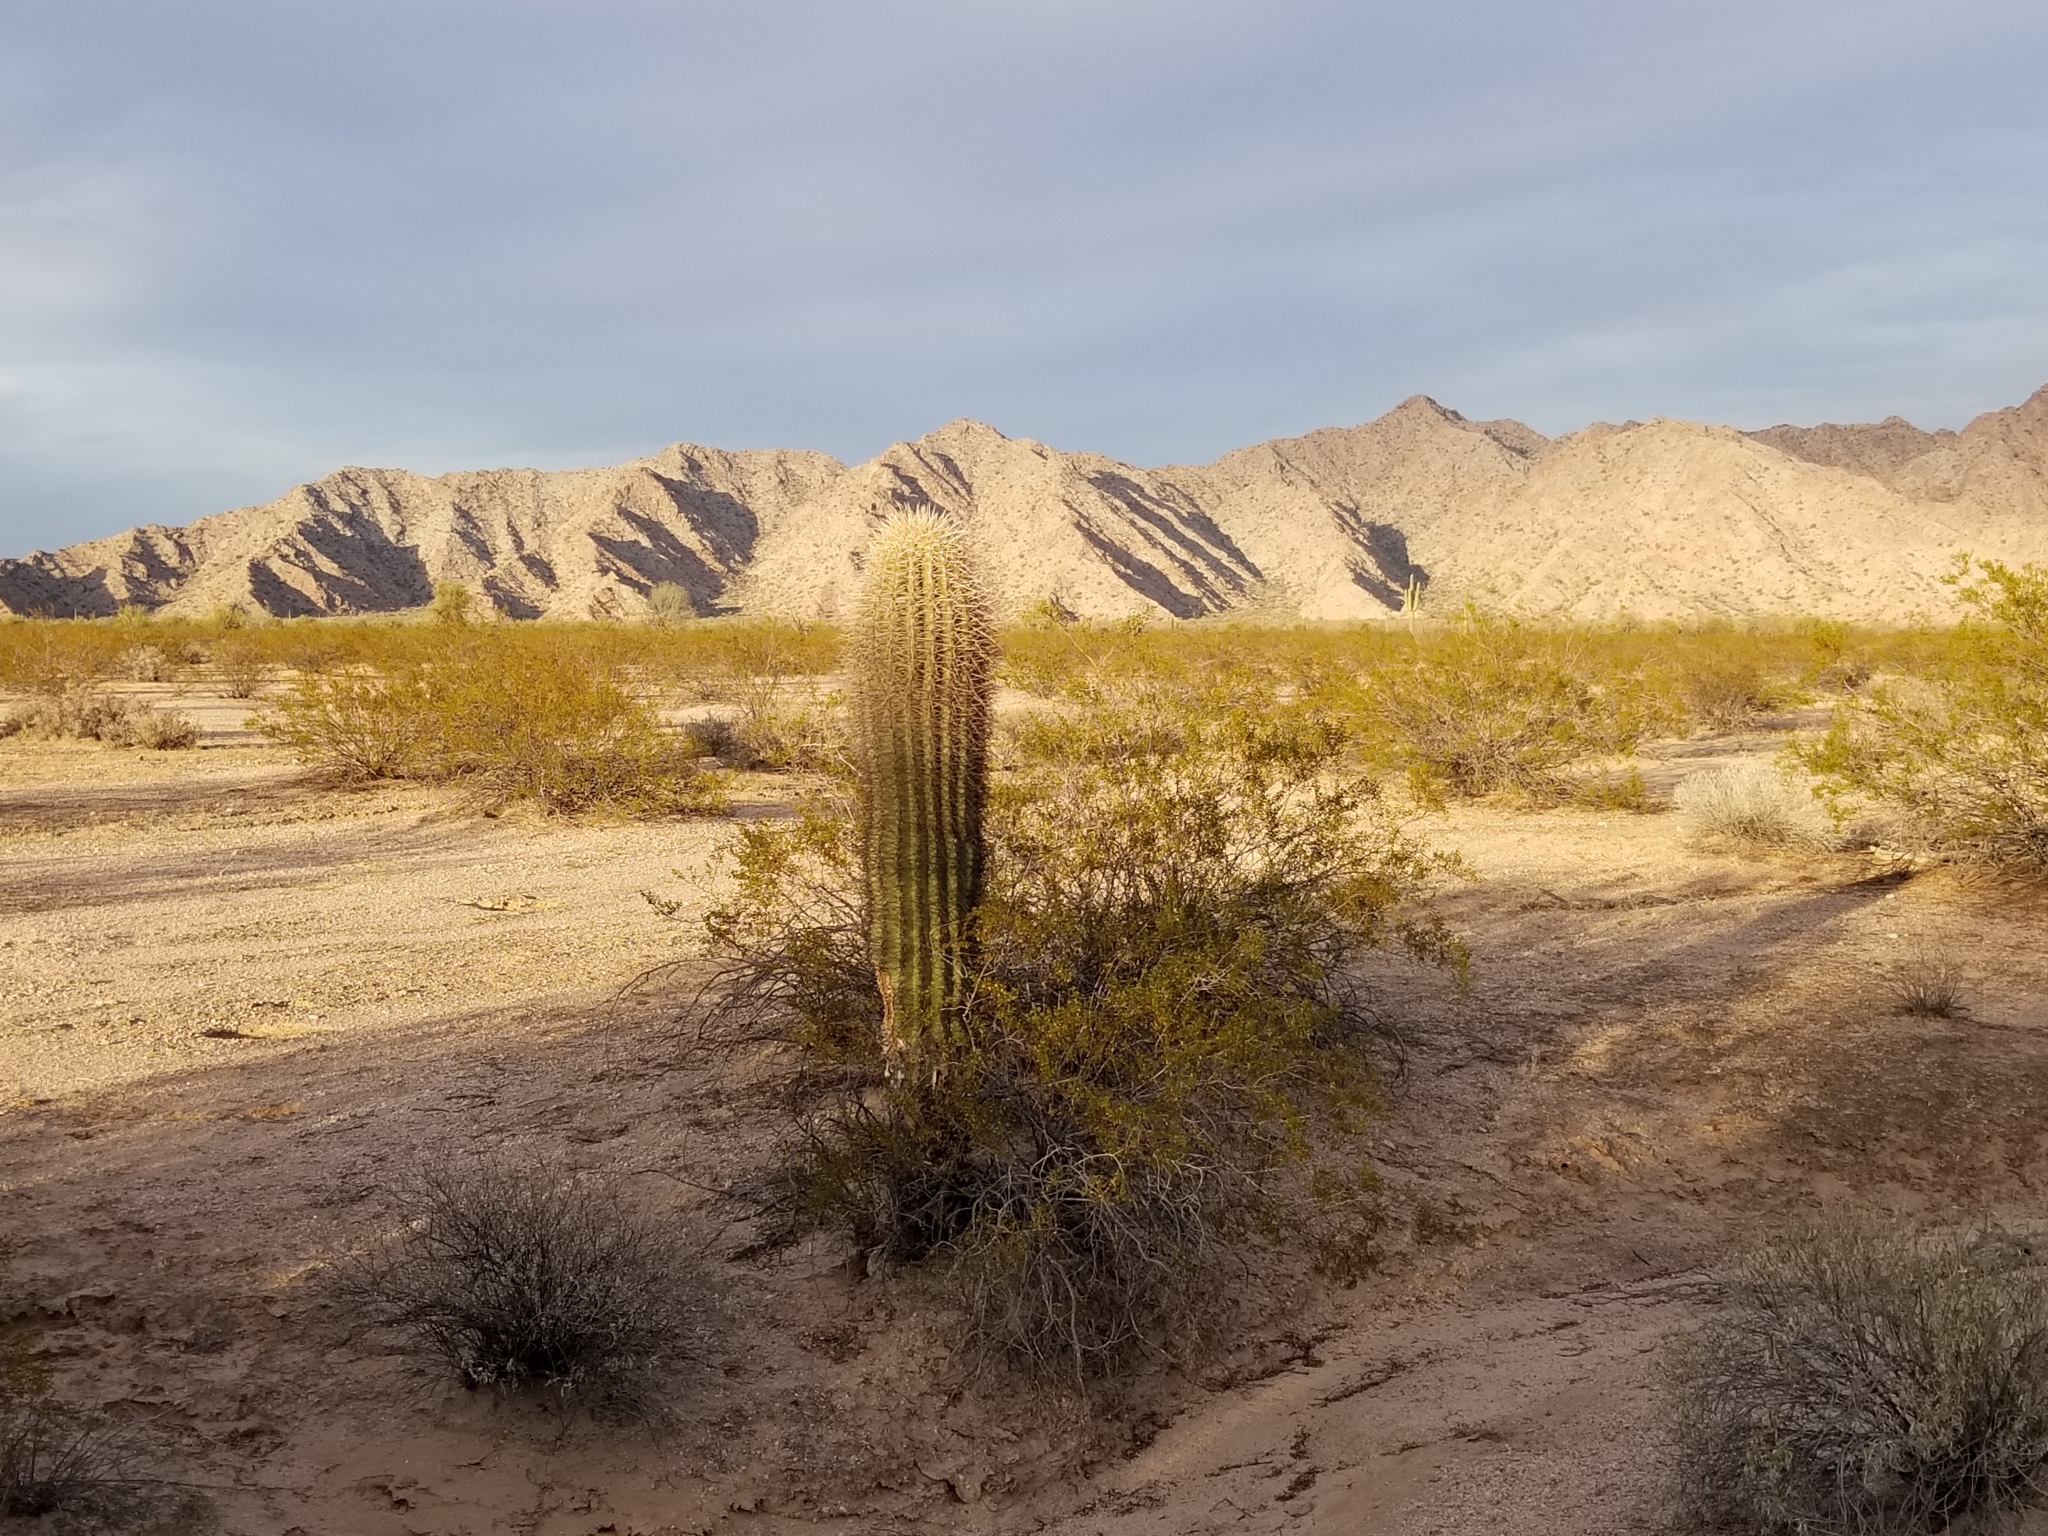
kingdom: Plantae
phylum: Tracheophyta
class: Magnoliopsida
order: Caryophyllales
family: Cactaceae
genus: Carnegiea
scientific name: Carnegiea gigantea
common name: Saguaro
